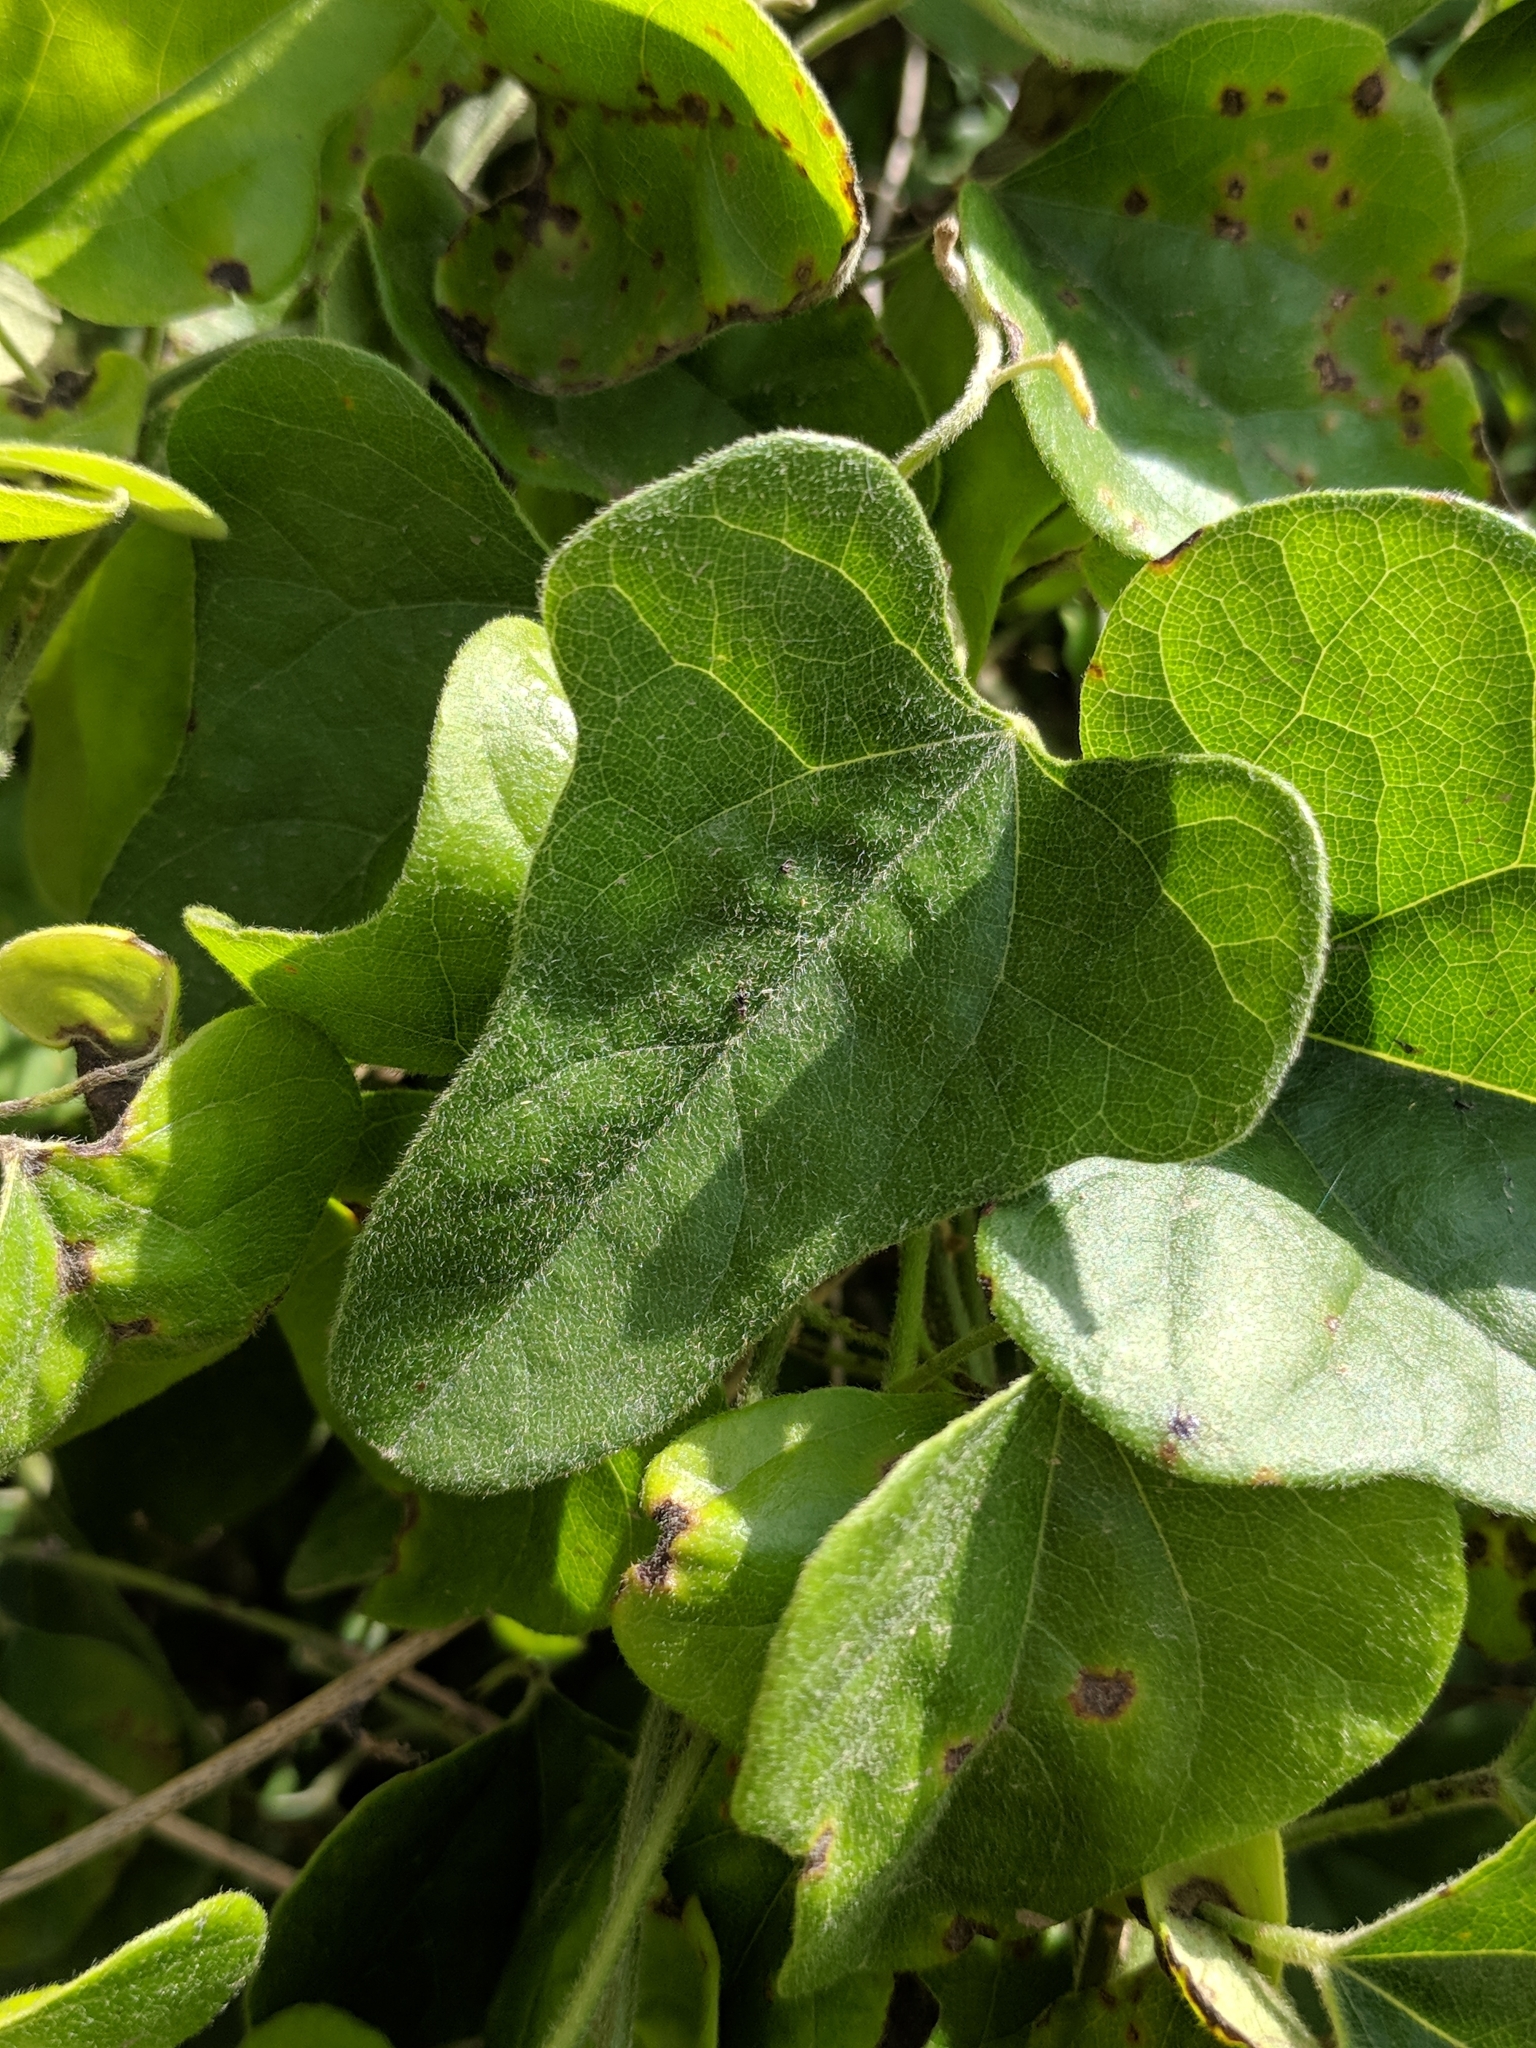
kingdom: Plantae
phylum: Tracheophyta
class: Magnoliopsida
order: Ranunculales
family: Menispermaceae
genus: Cocculus
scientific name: Cocculus carolinus
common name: Carolina moonseed
